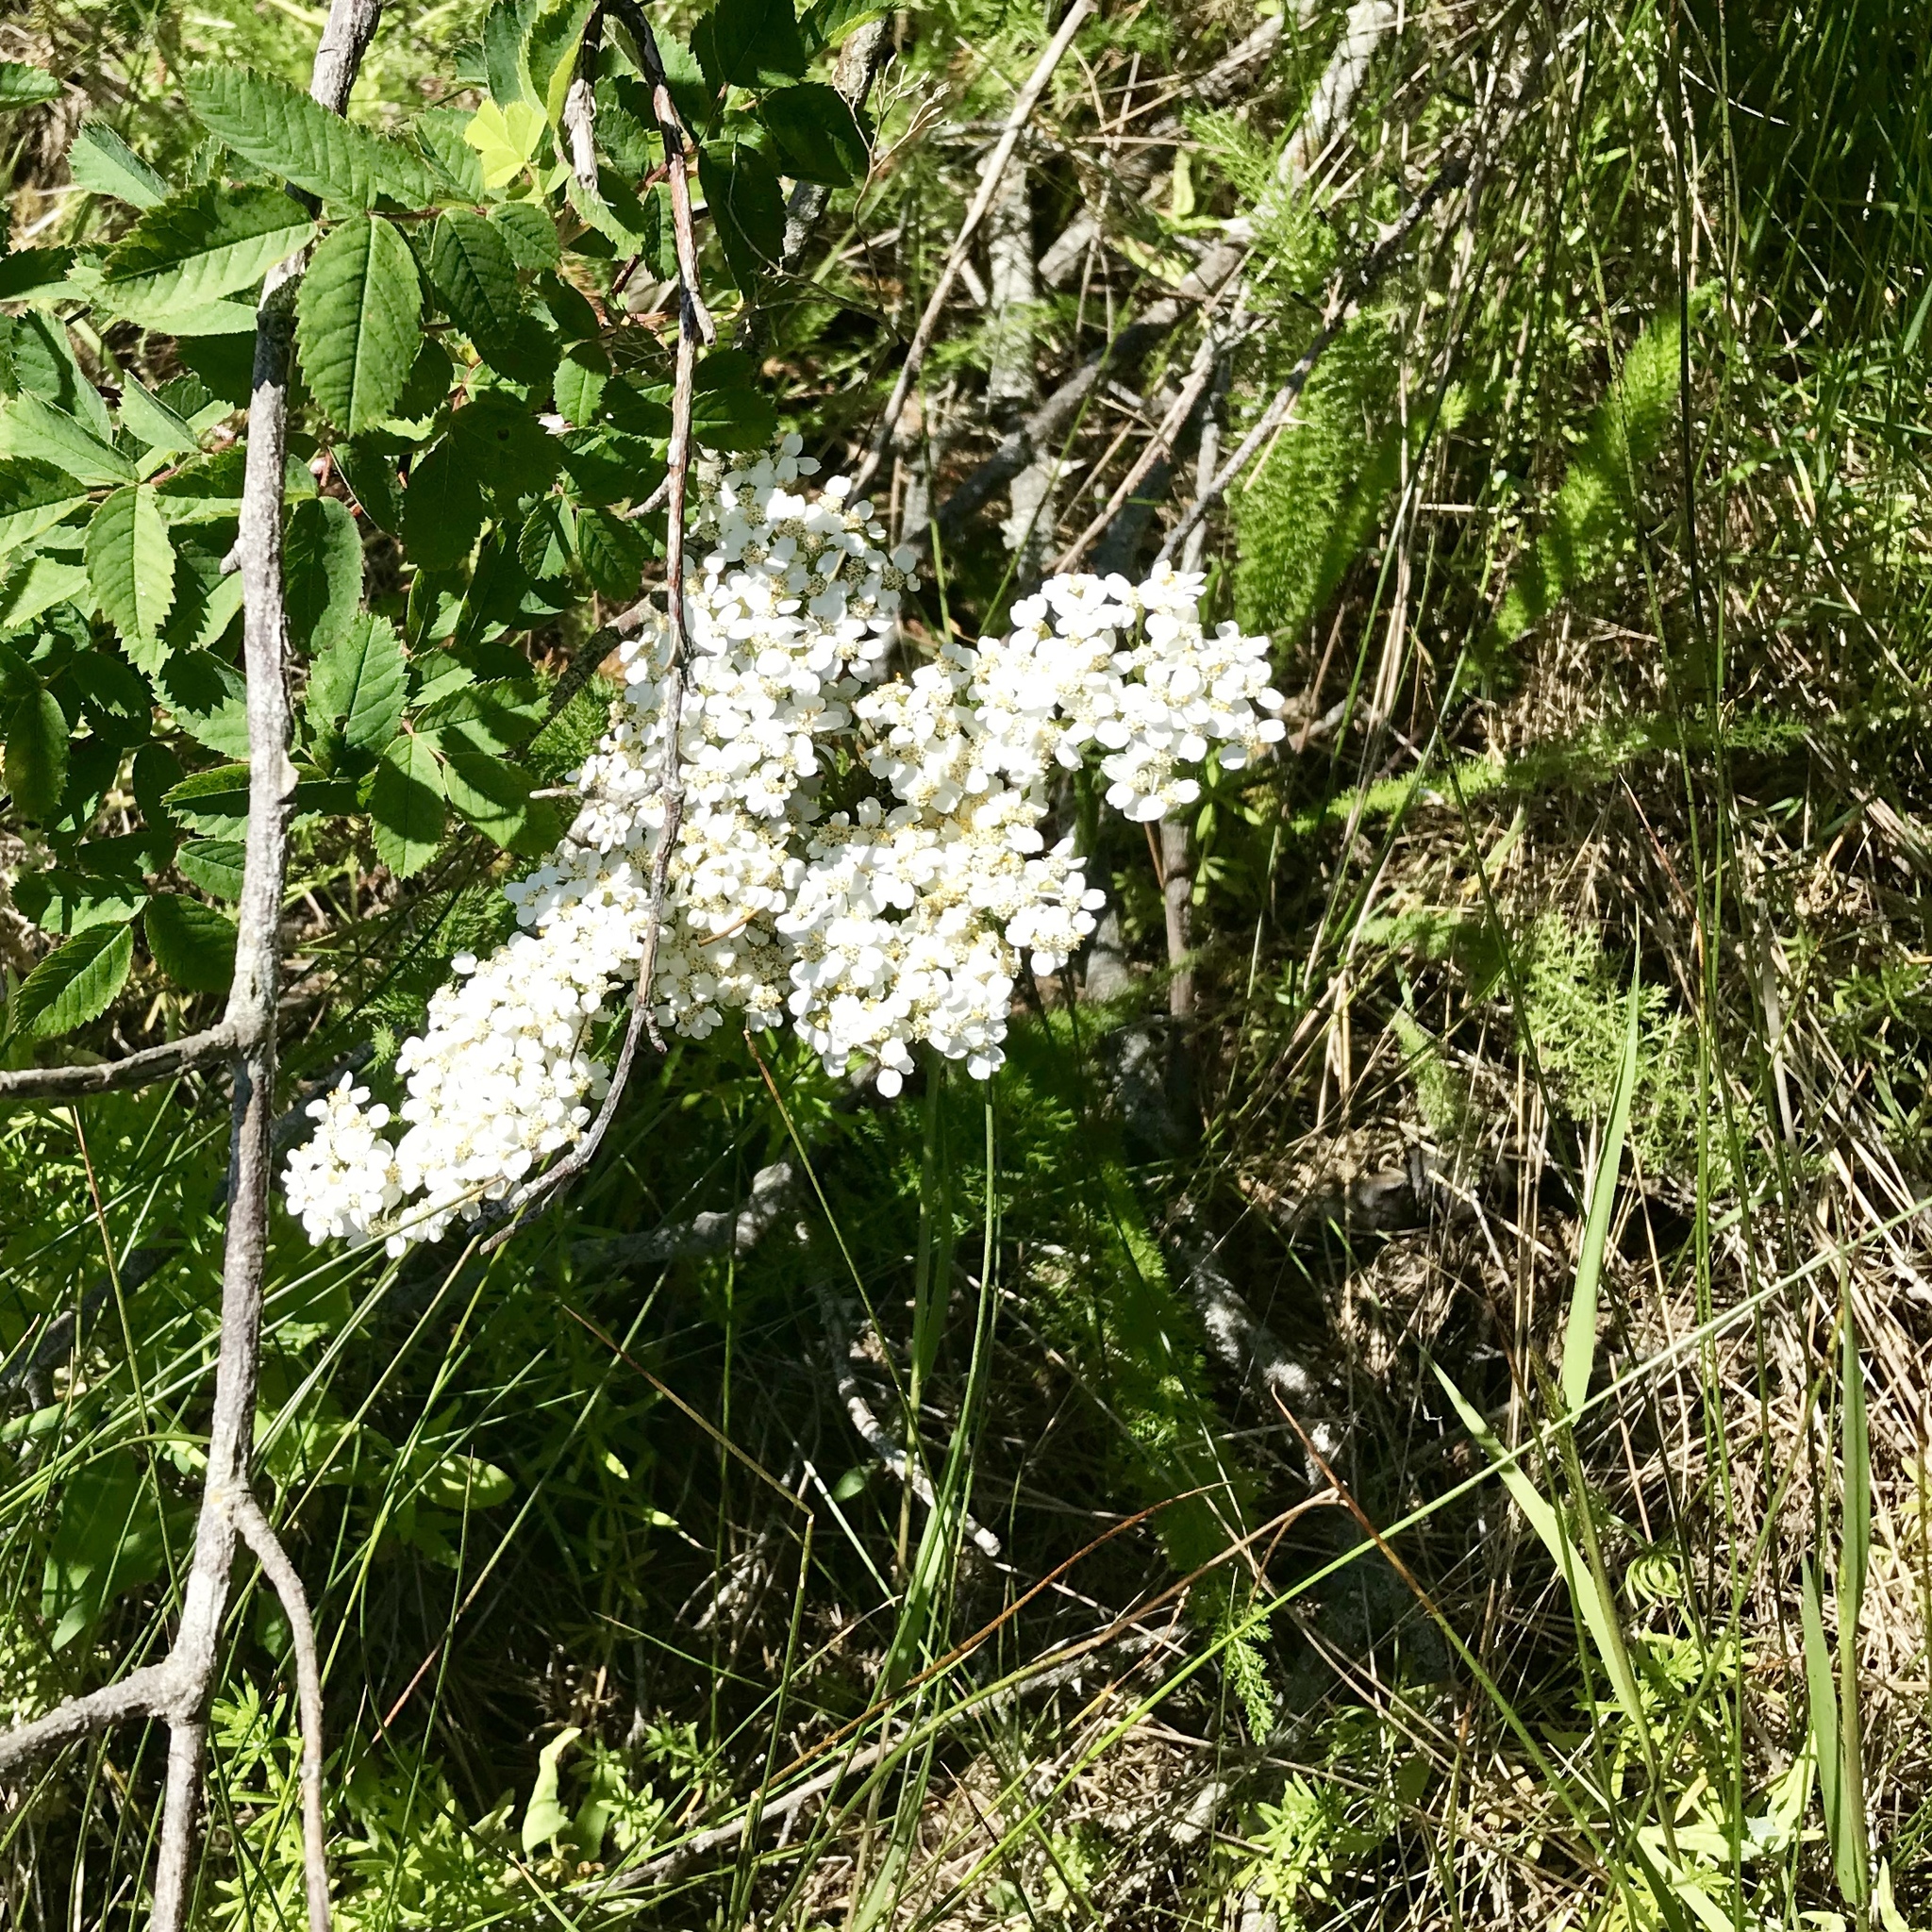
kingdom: Plantae
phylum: Tracheophyta
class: Magnoliopsida
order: Asterales
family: Asteraceae
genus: Achillea
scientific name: Achillea millefolium
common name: Yarrow
